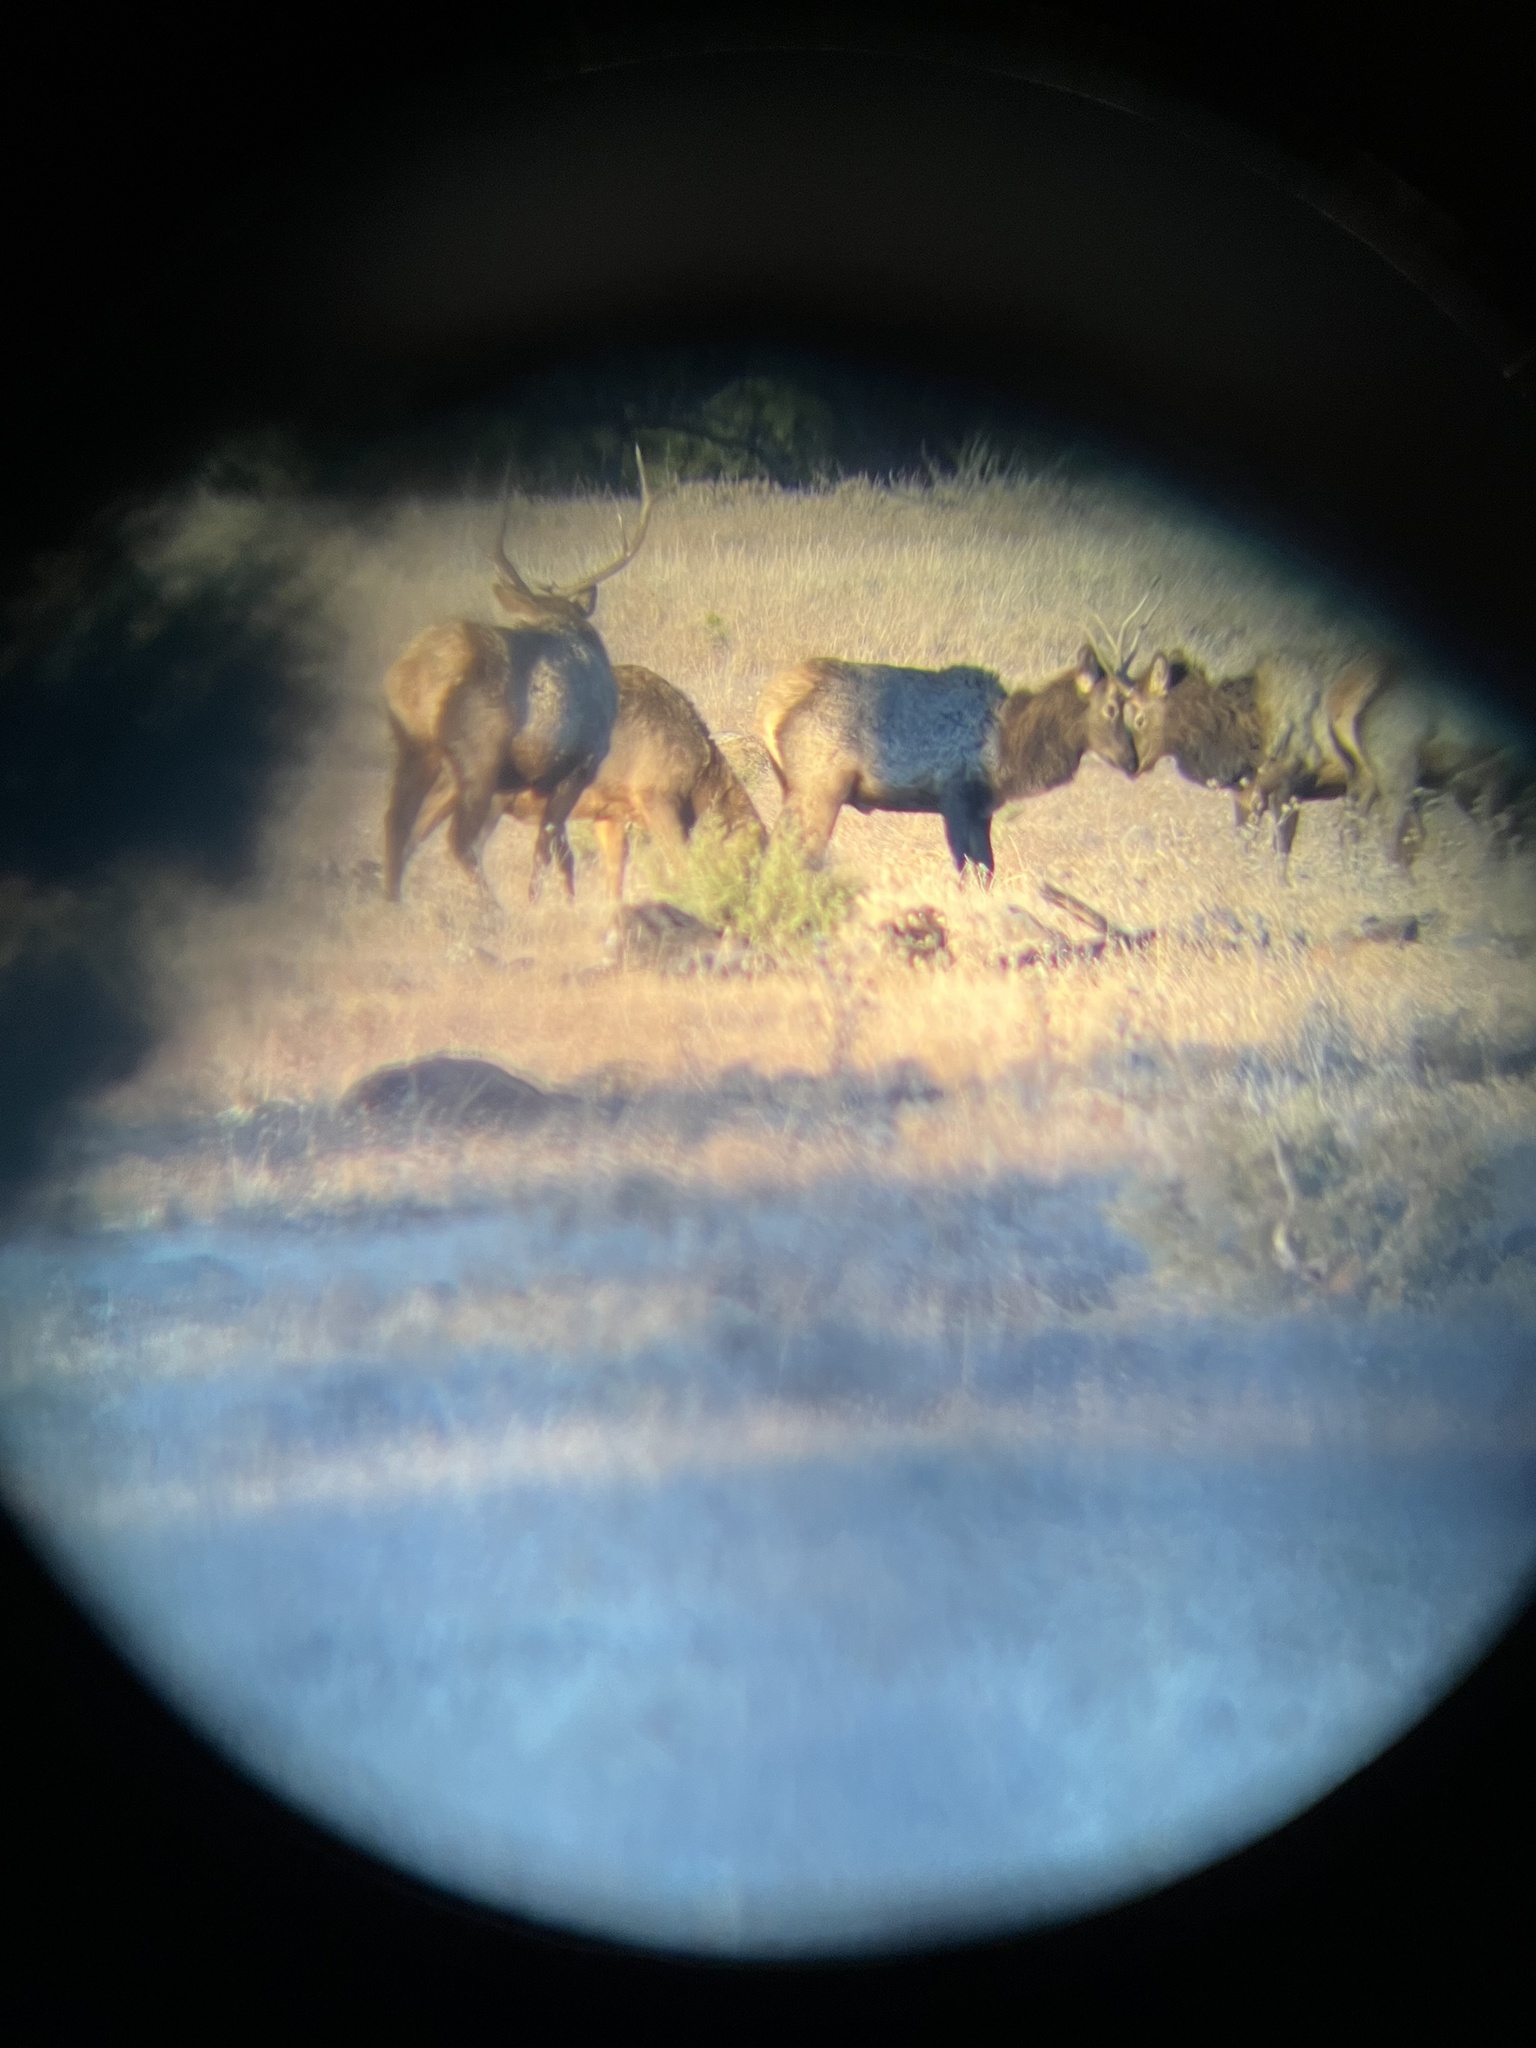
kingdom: Animalia
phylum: Chordata
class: Mammalia
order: Artiodactyla
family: Cervidae
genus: Cervus
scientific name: Cervus elaphus
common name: Red deer
